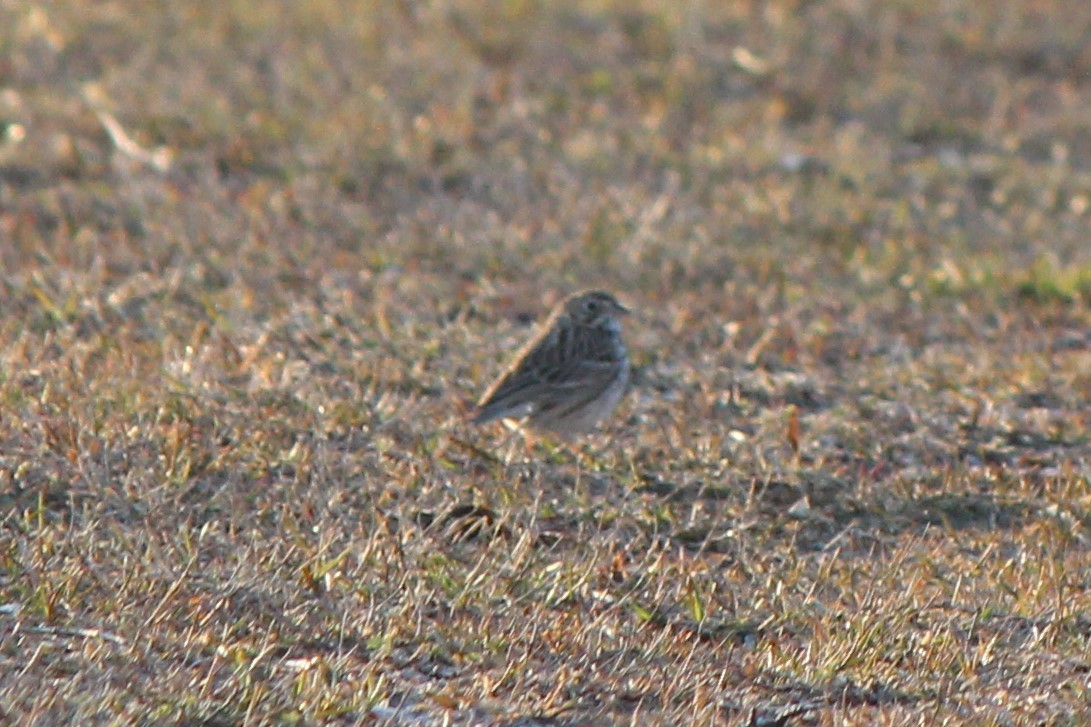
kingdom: Animalia
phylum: Chordata
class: Aves
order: Passeriformes
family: Passerellidae
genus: Pooecetes
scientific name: Pooecetes gramineus
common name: Vesper sparrow
